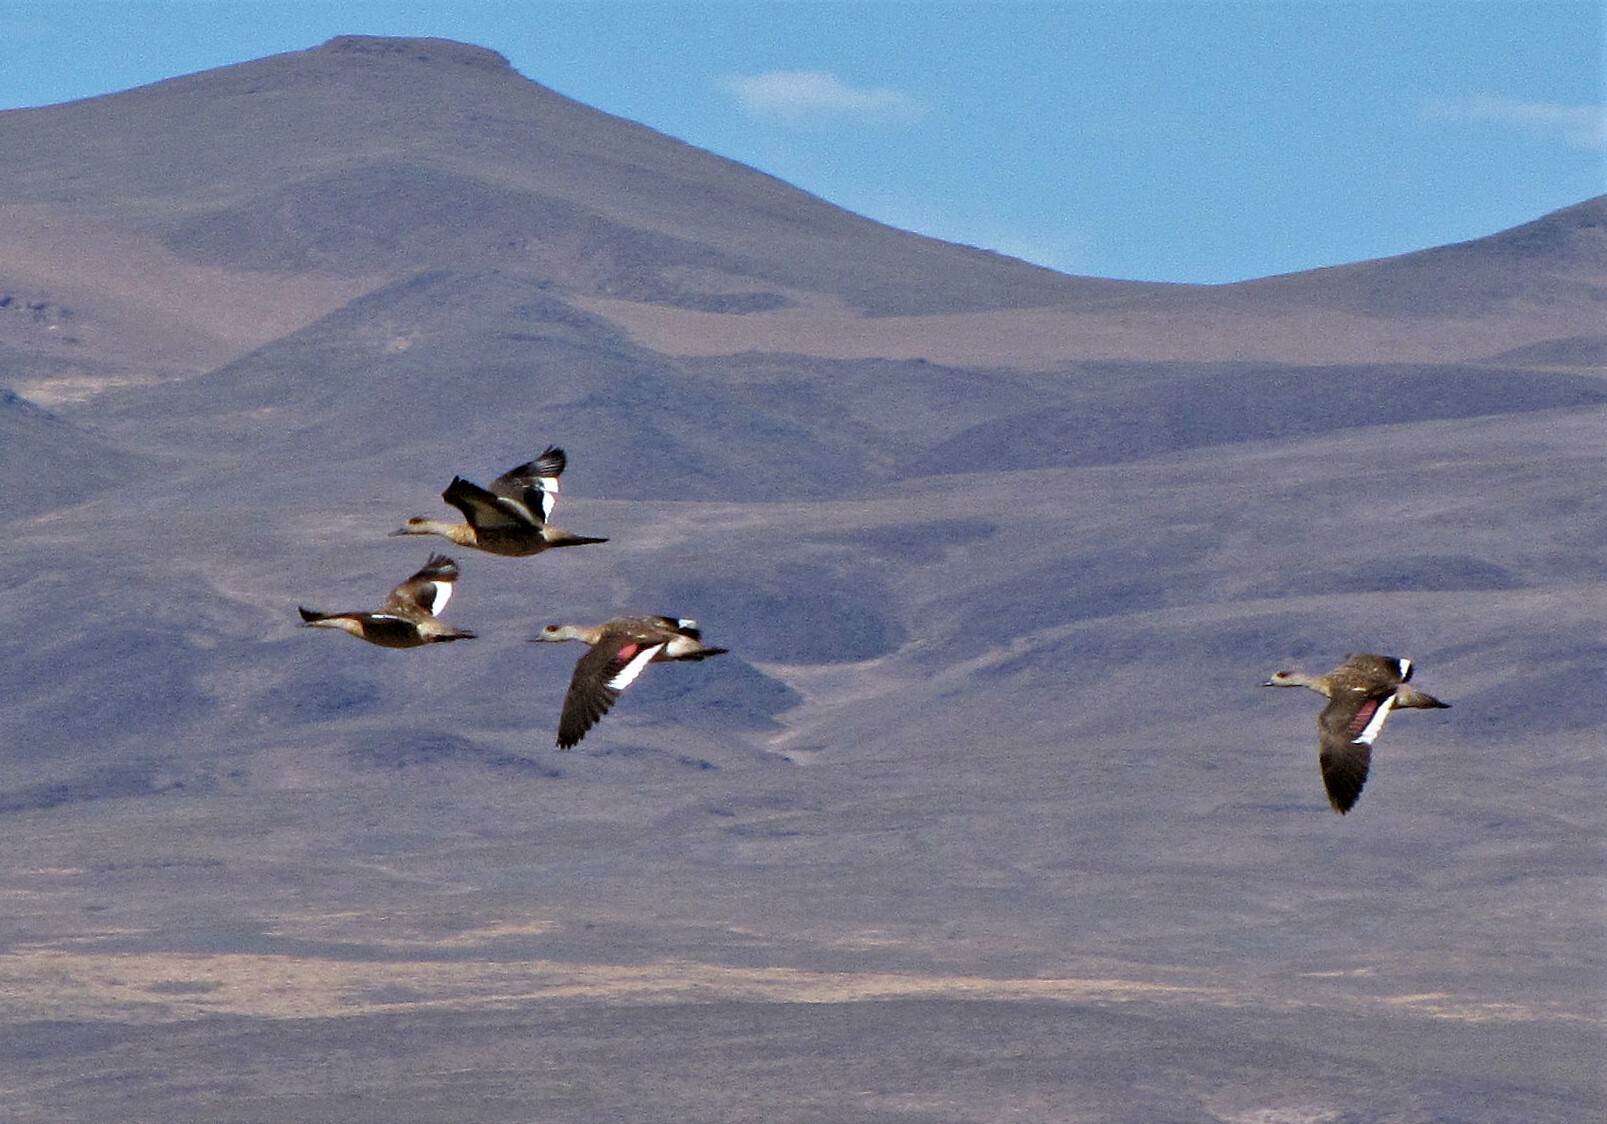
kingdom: Animalia
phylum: Chordata
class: Aves
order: Anseriformes
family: Anatidae
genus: Lophonetta
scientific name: Lophonetta specularioides
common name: Crested duck
